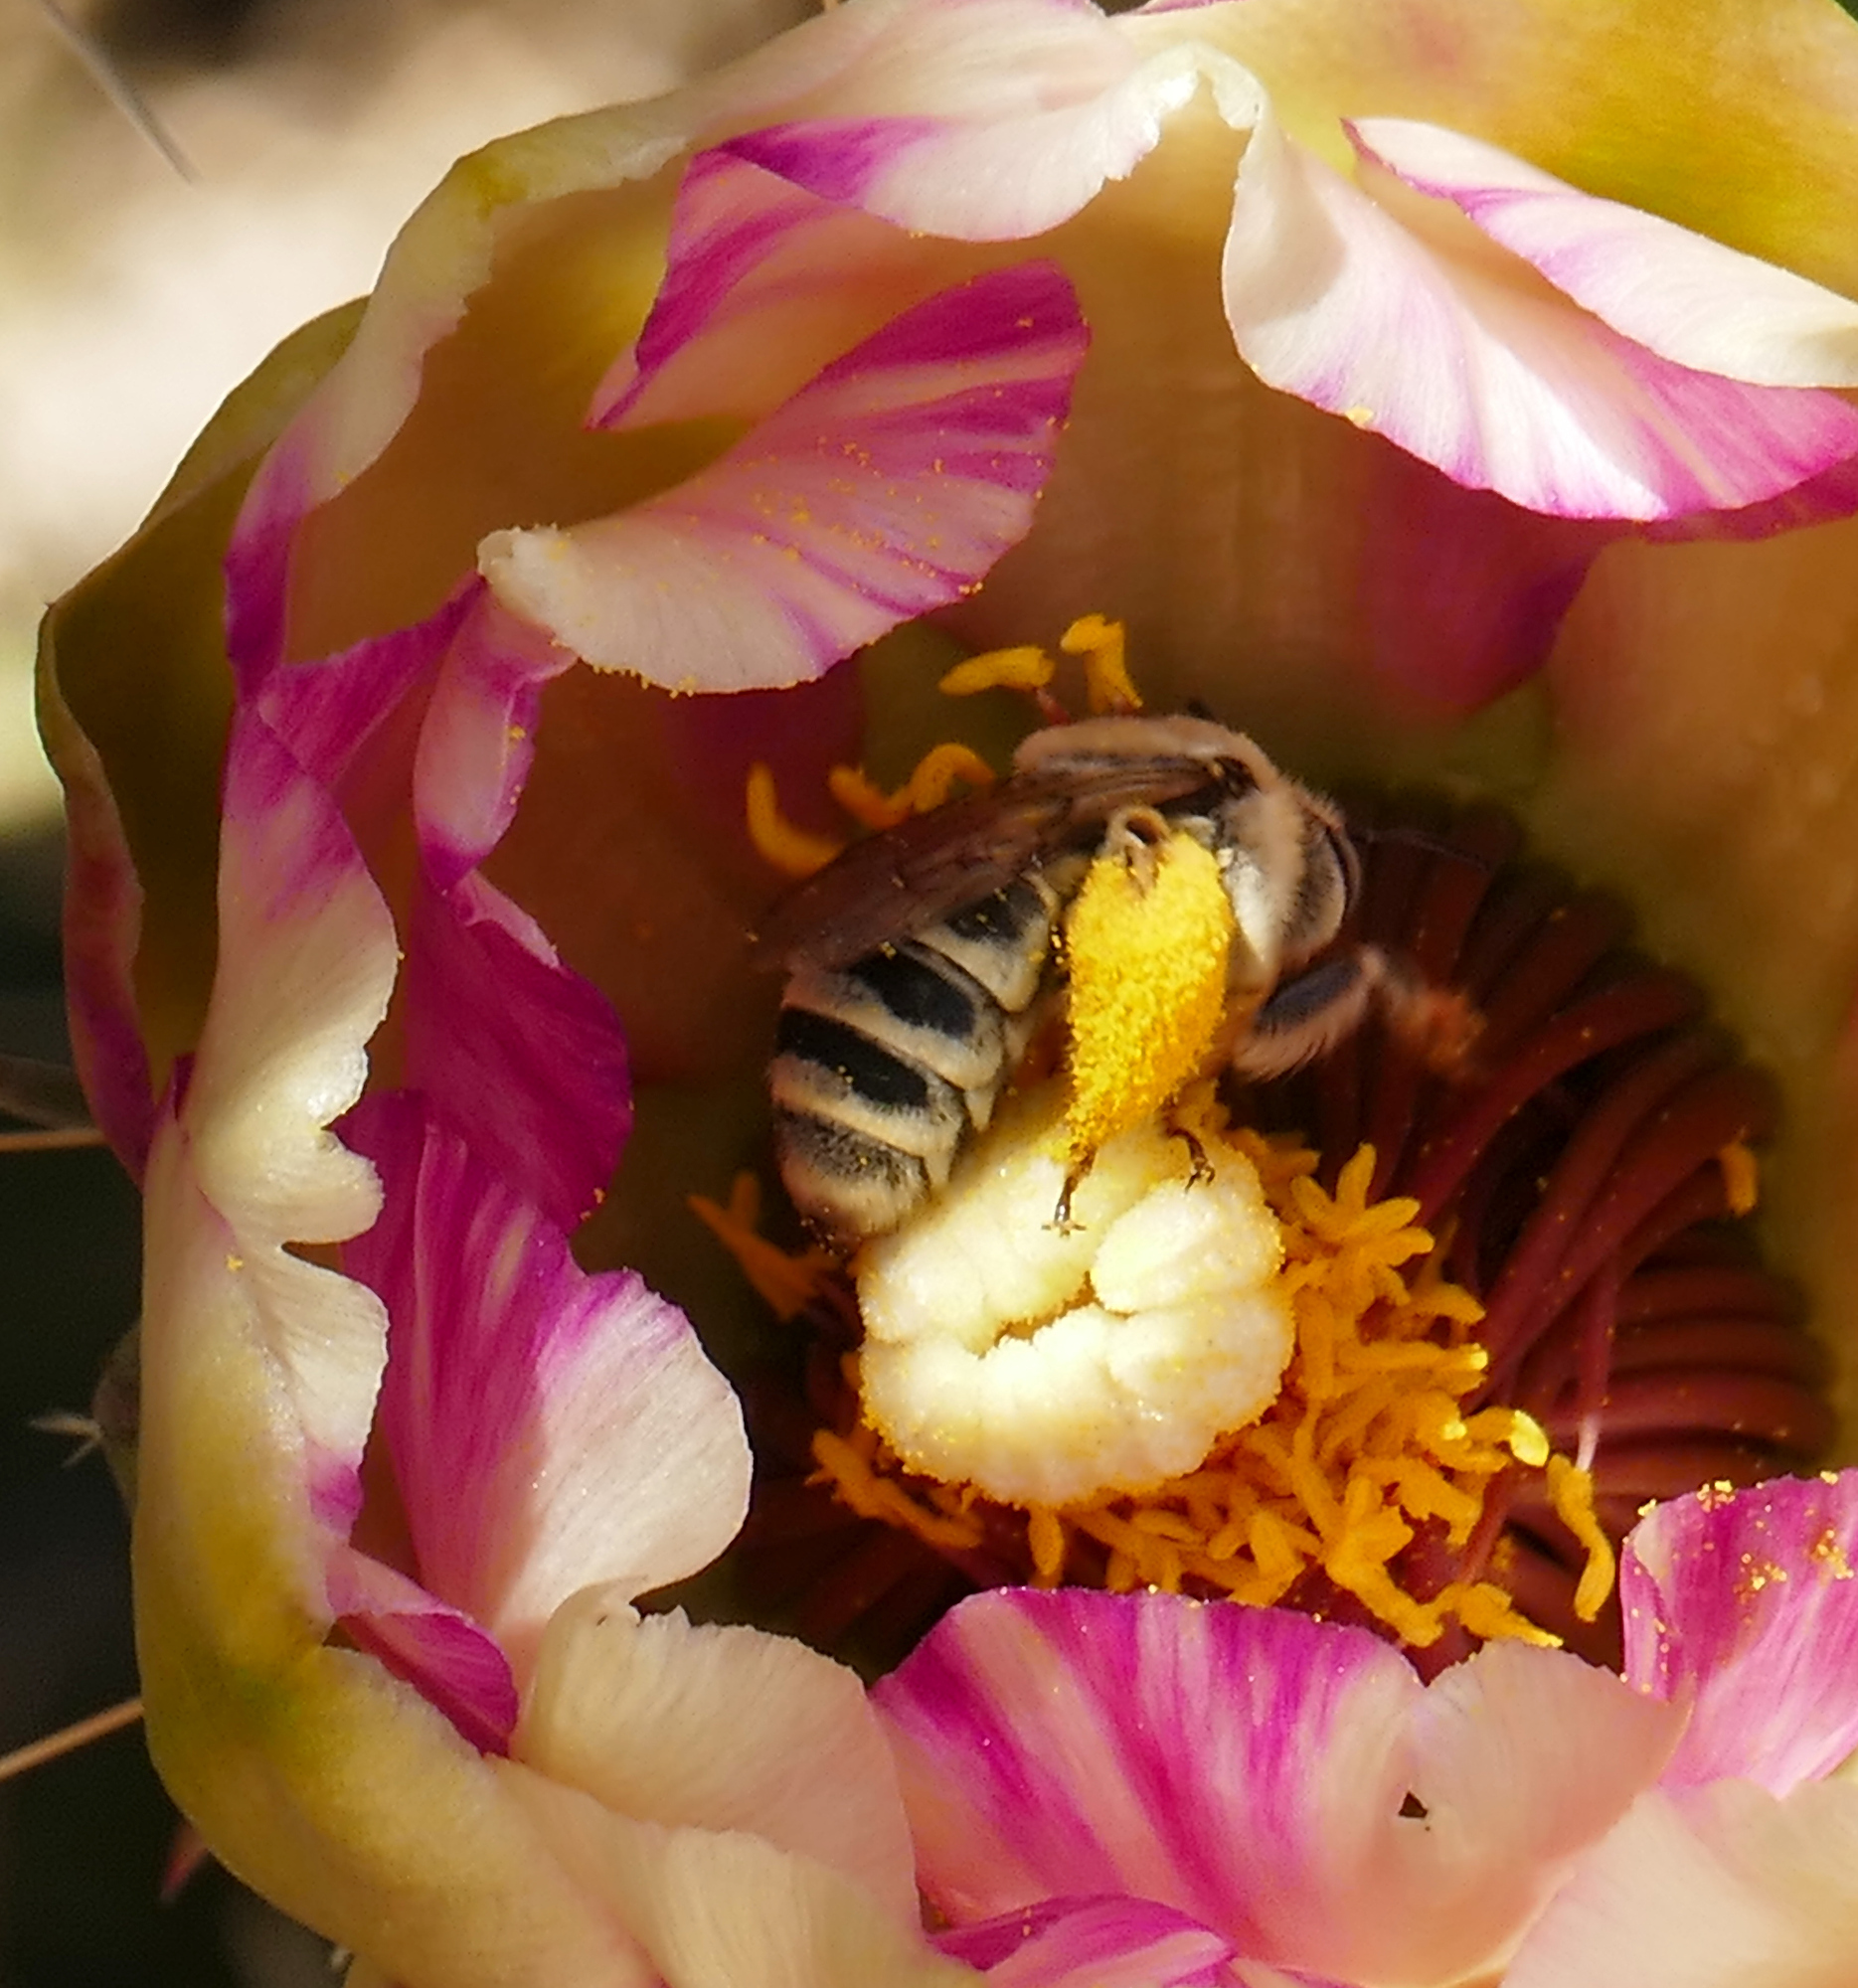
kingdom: Animalia
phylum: Arthropoda
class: Insecta
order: Hymenoptera
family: Apidae
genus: Diadasia
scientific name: Diadasia
